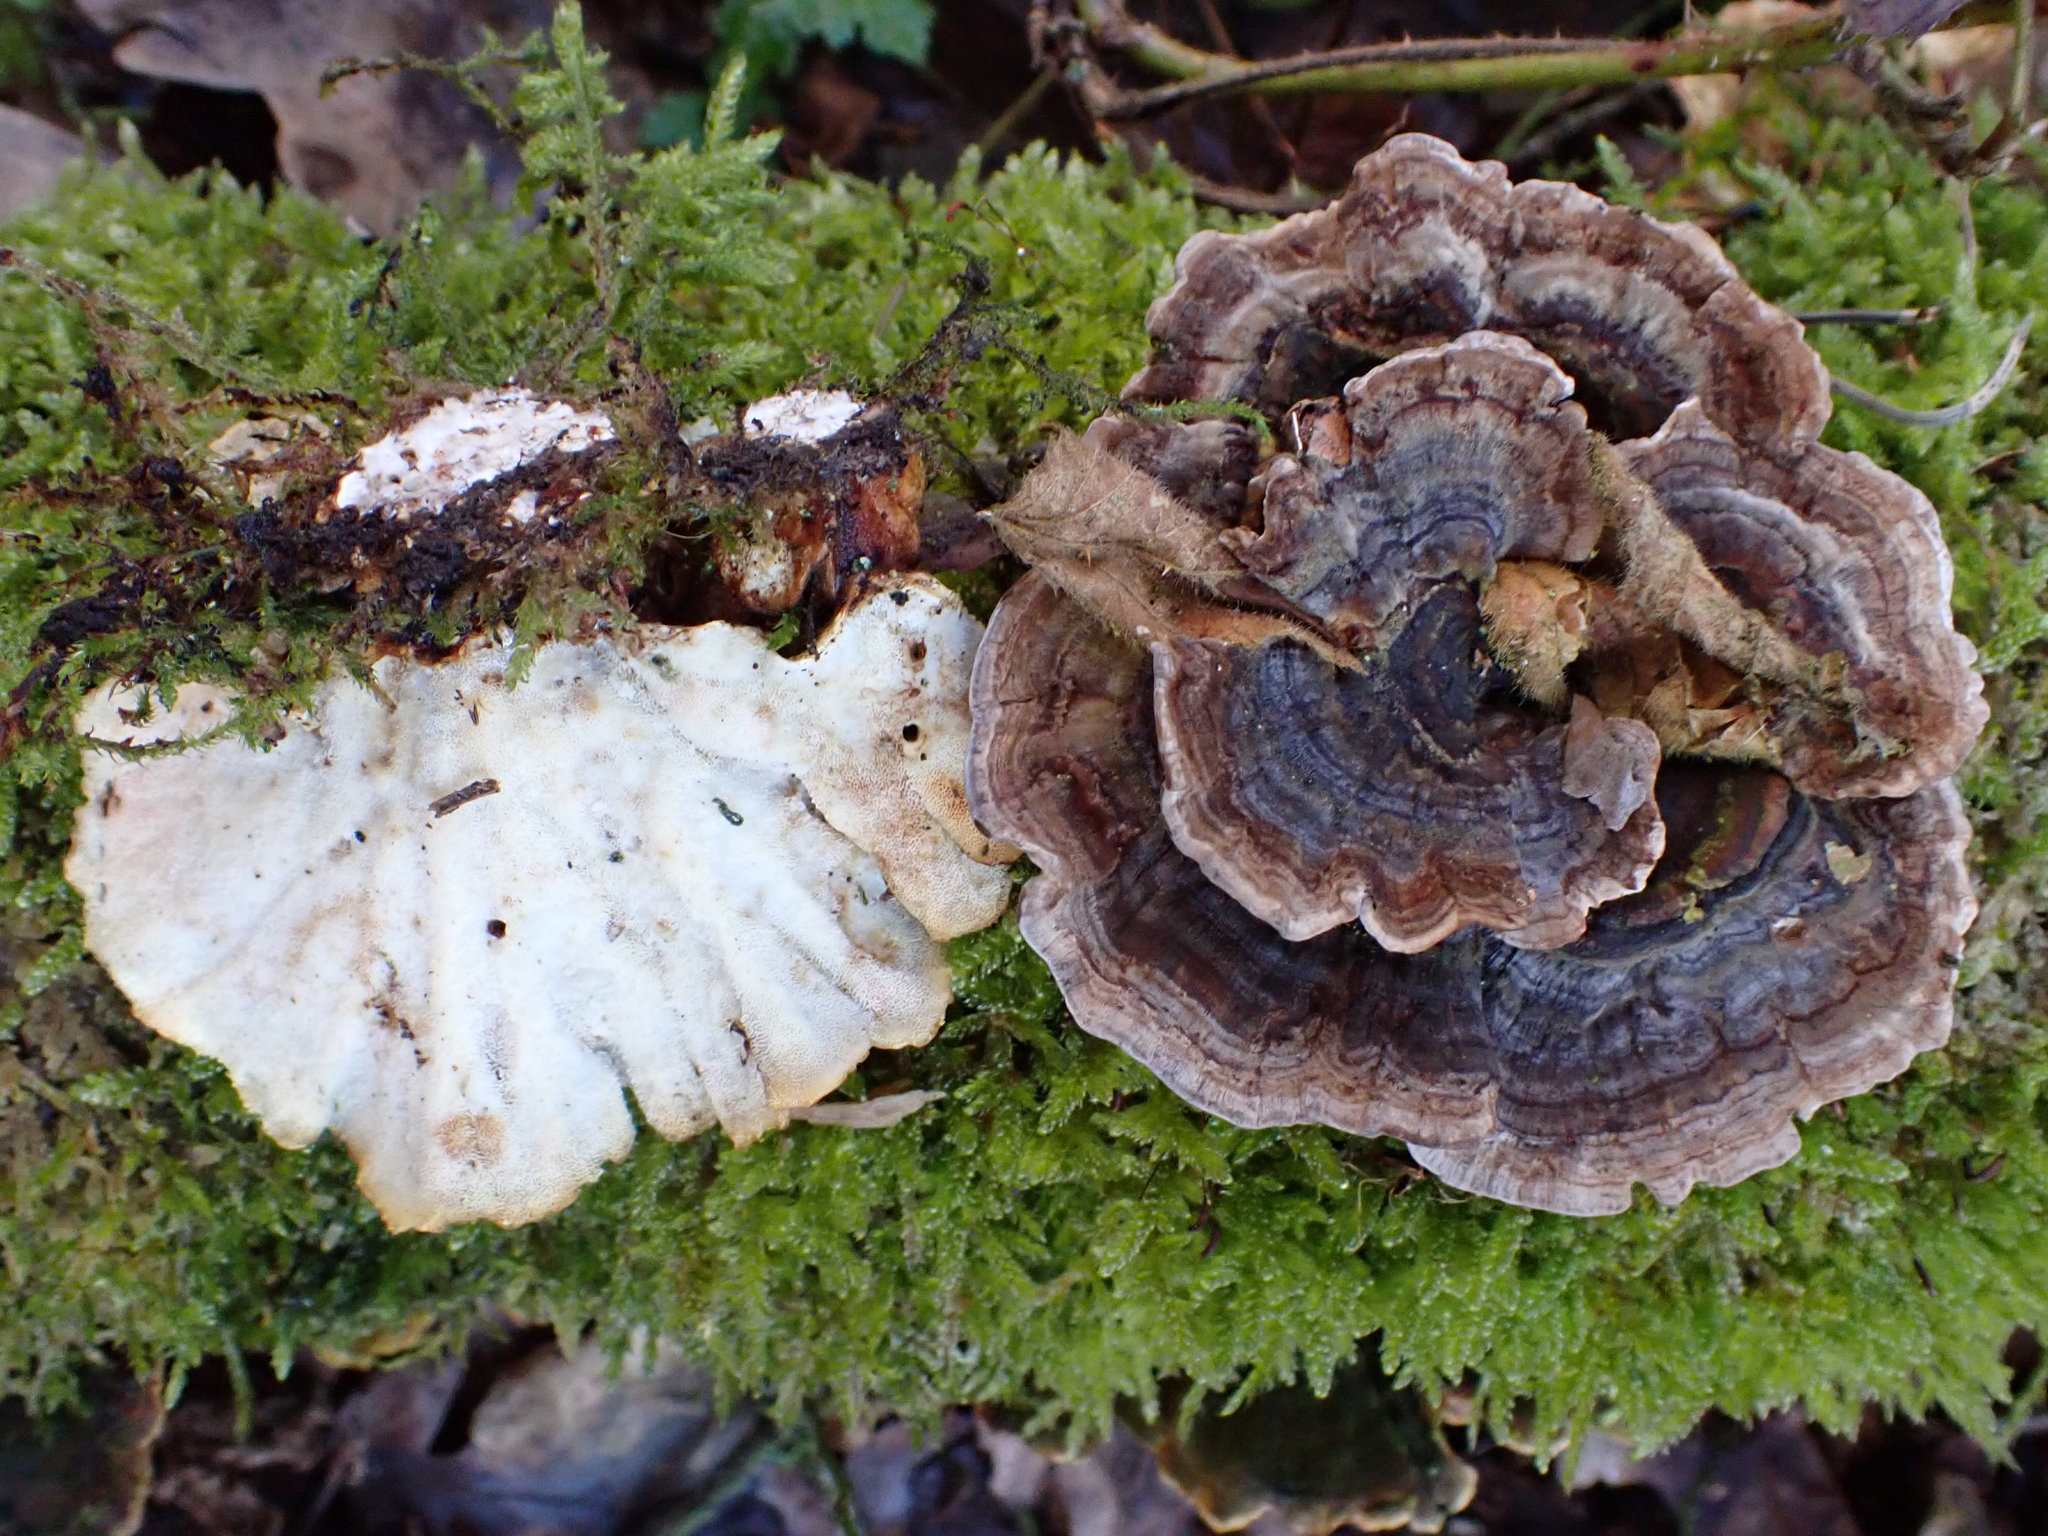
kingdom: Fungi
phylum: Basidiomycota
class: Agaricomycetes
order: Polyporales
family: Polyporaceae
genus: Trametes
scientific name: Trametes versicolor
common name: Turkeytail
